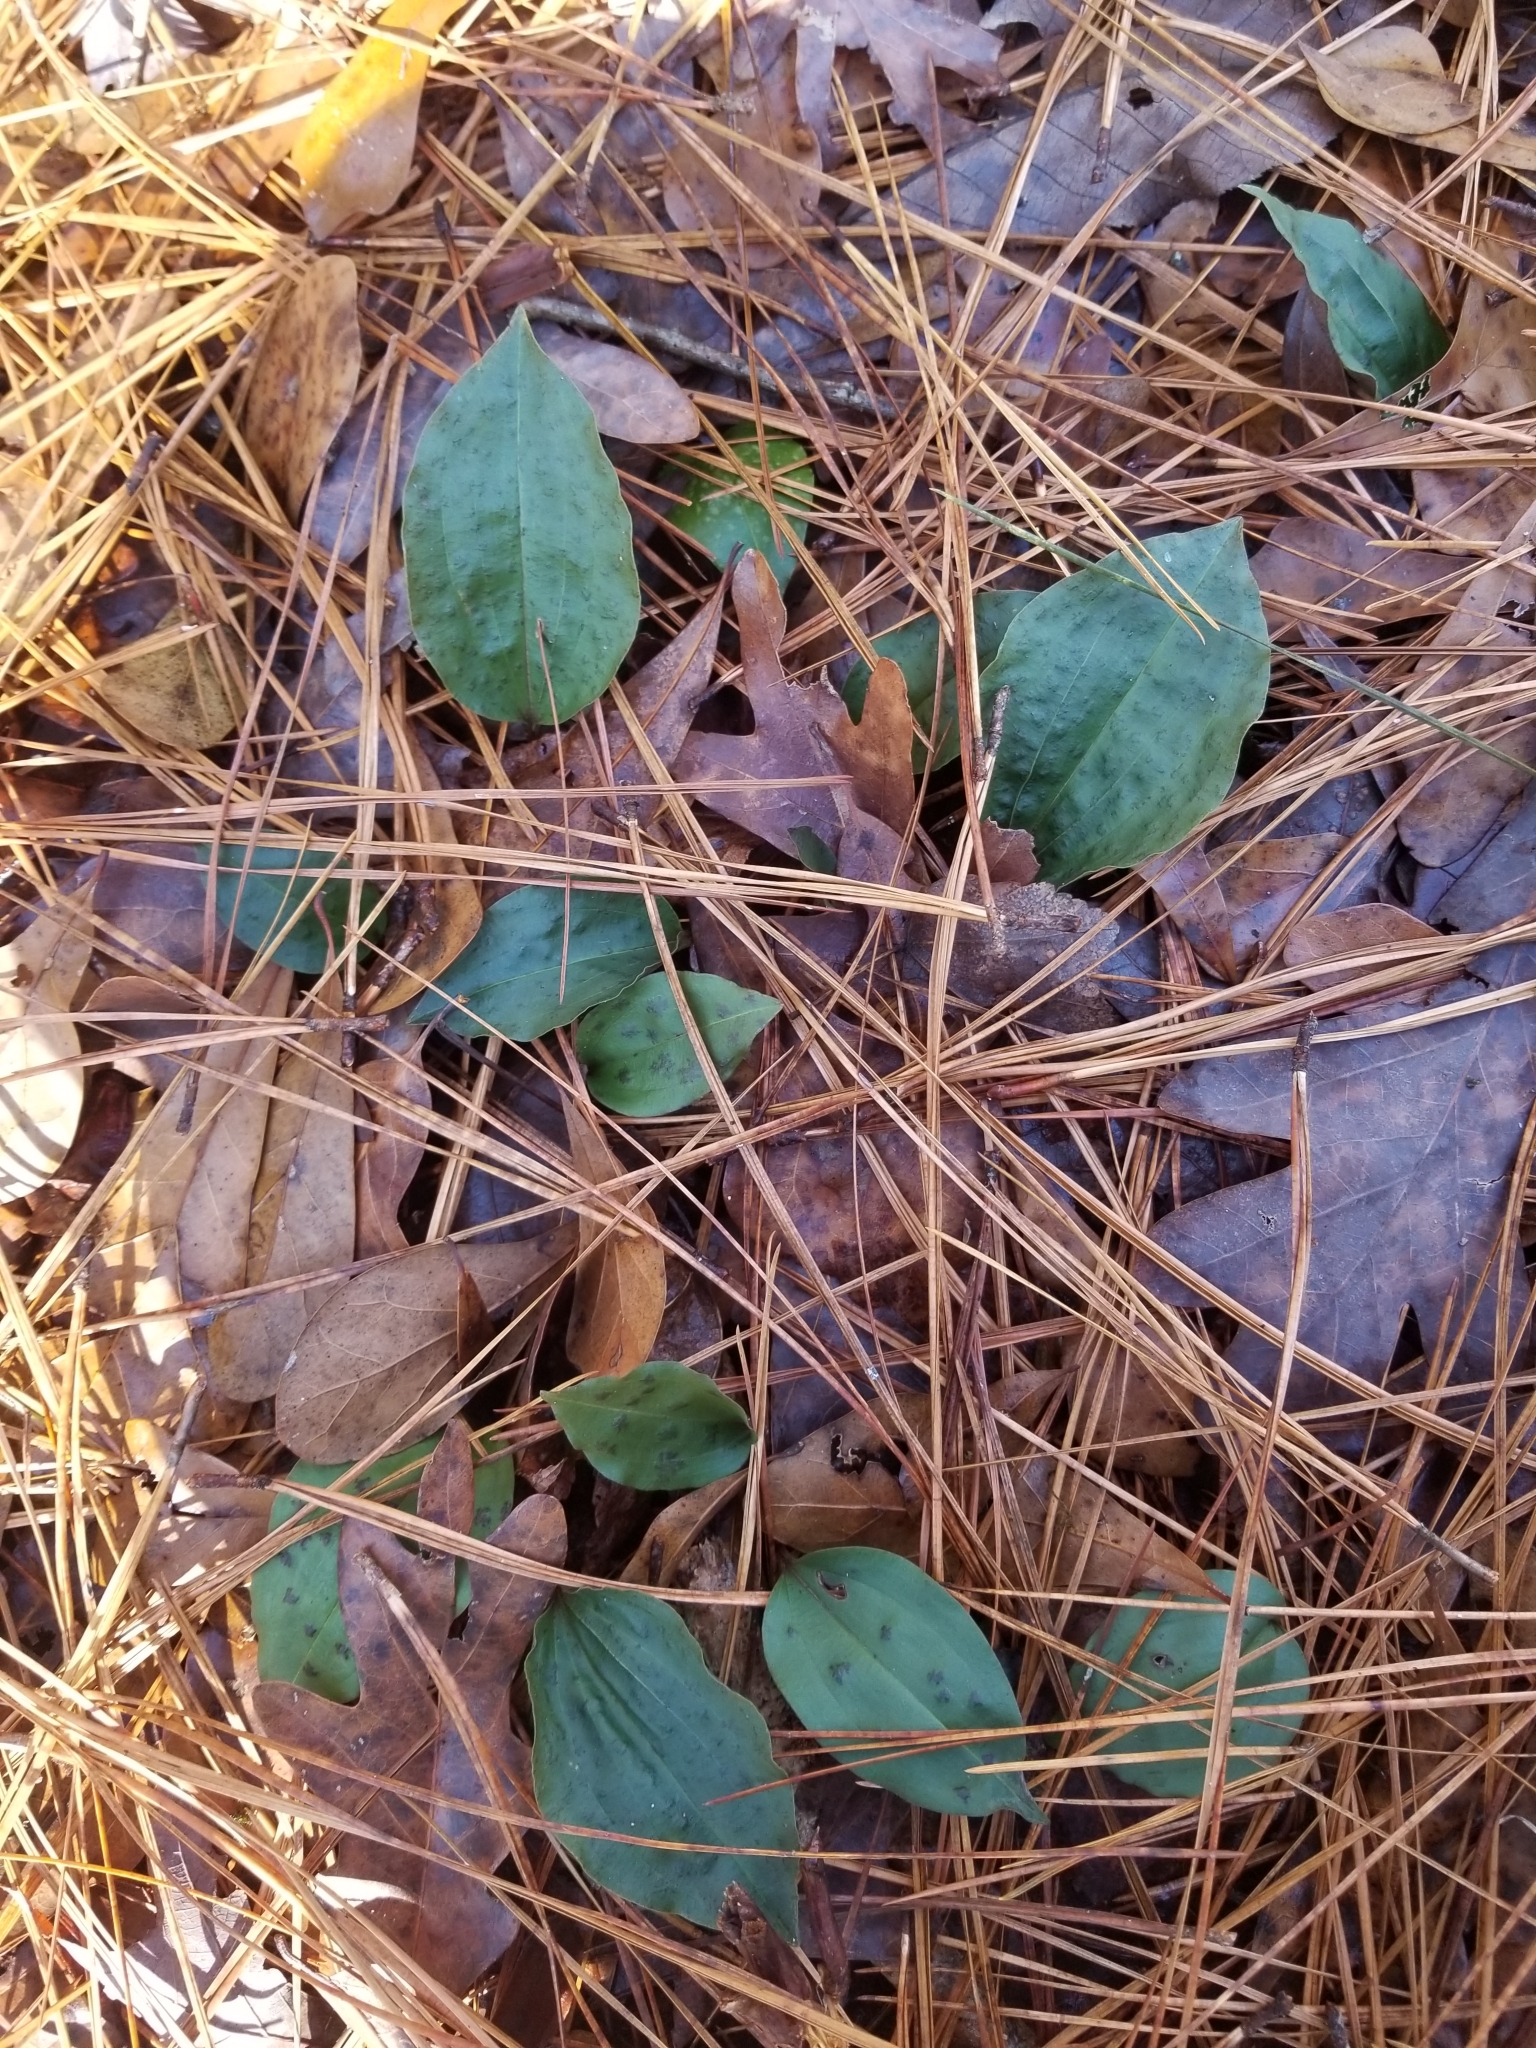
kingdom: Plantae
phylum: Tracheophyta
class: Liliopsida
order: Asparagales
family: Orchidaceae
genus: Tipularia
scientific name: Tipularia discolor
